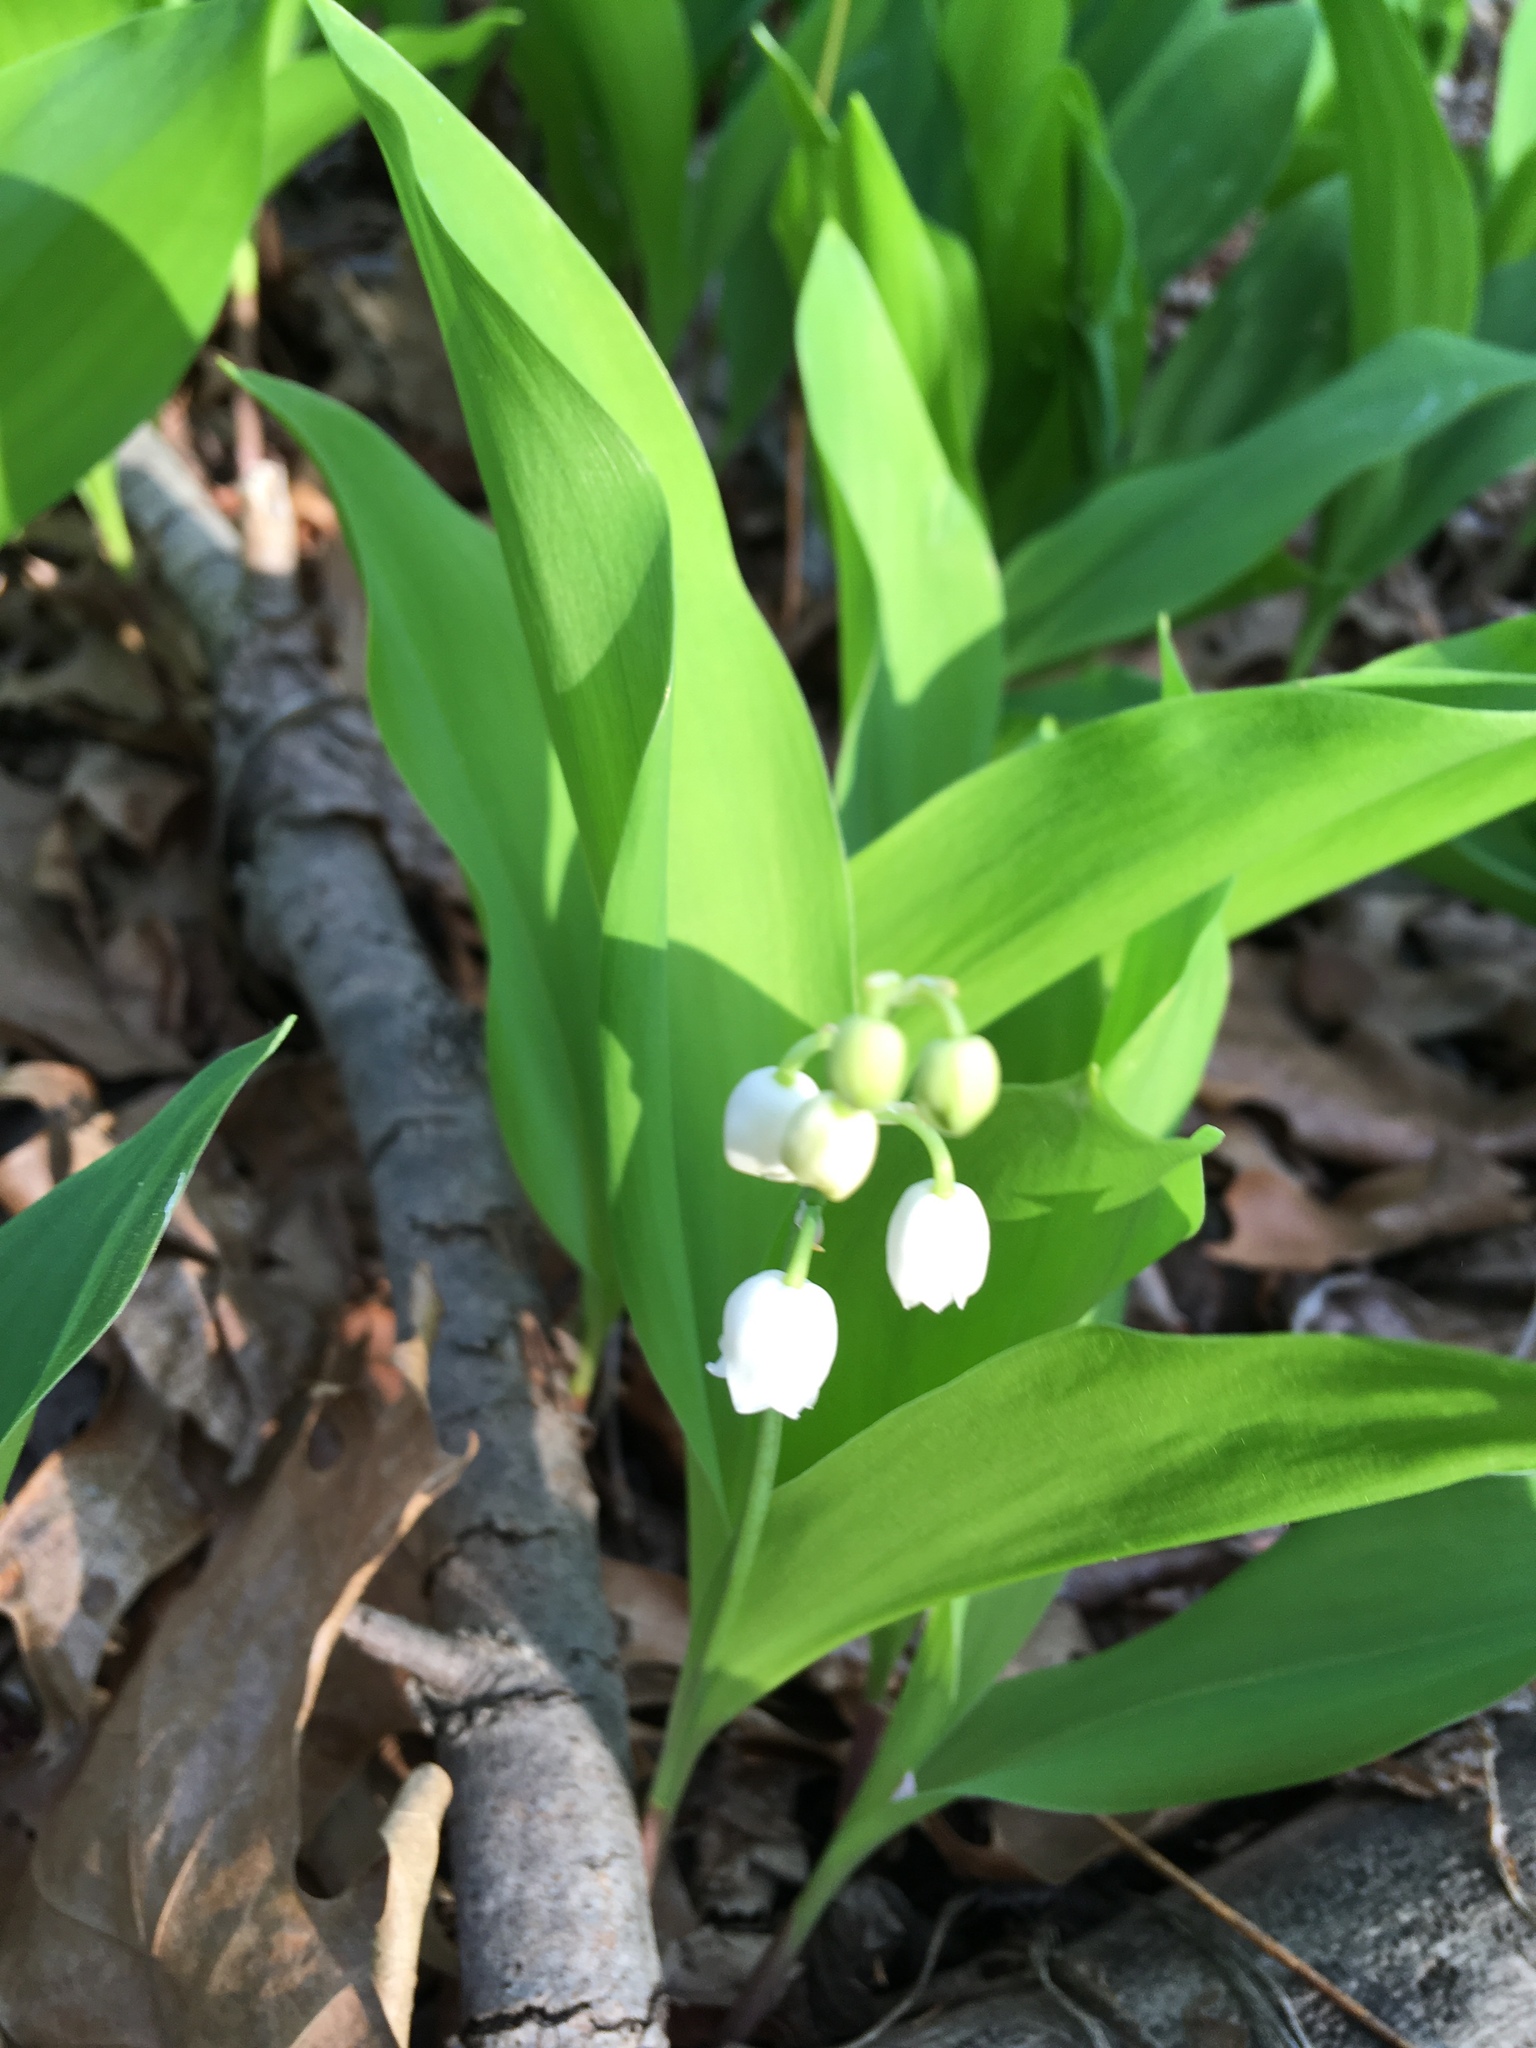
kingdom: Plantae
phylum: Tracheophyta
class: Liliopsida
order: Asparagales
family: Asparagaceae
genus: Convallaria
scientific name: Convallaria majalis
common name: Lily-of-the-valley
